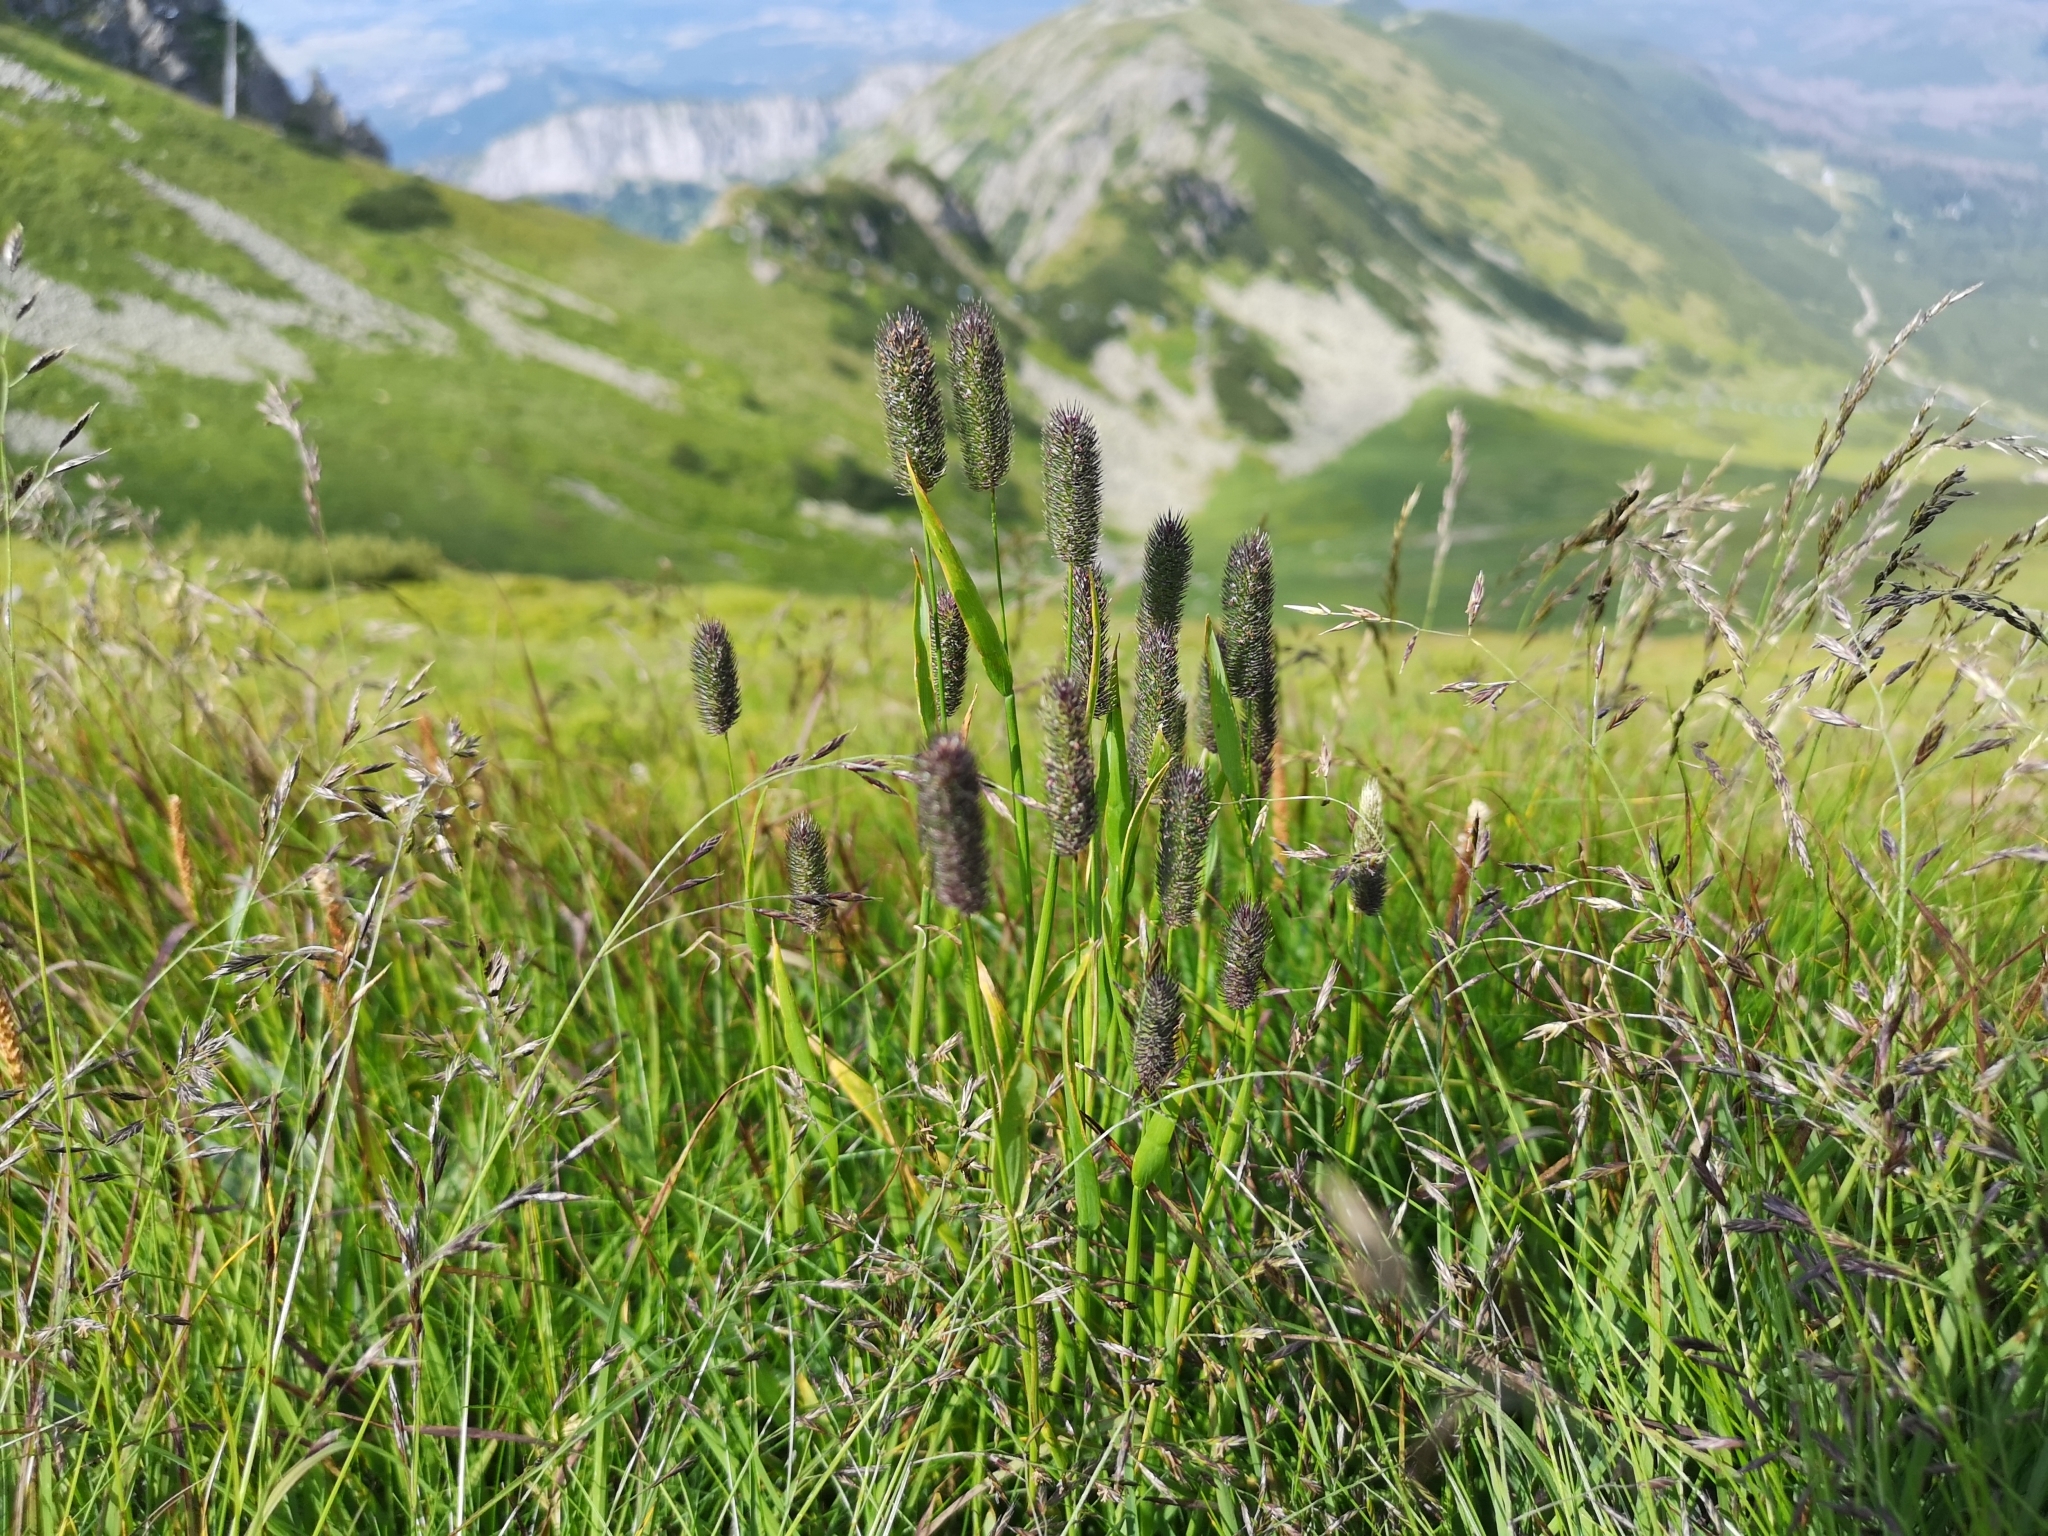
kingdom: Plantae
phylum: Tracheophyta
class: Liliopsida
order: Poales
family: Poaceae
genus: Phleum
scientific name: Phleum alpinum
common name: Alpine cat's-tail
